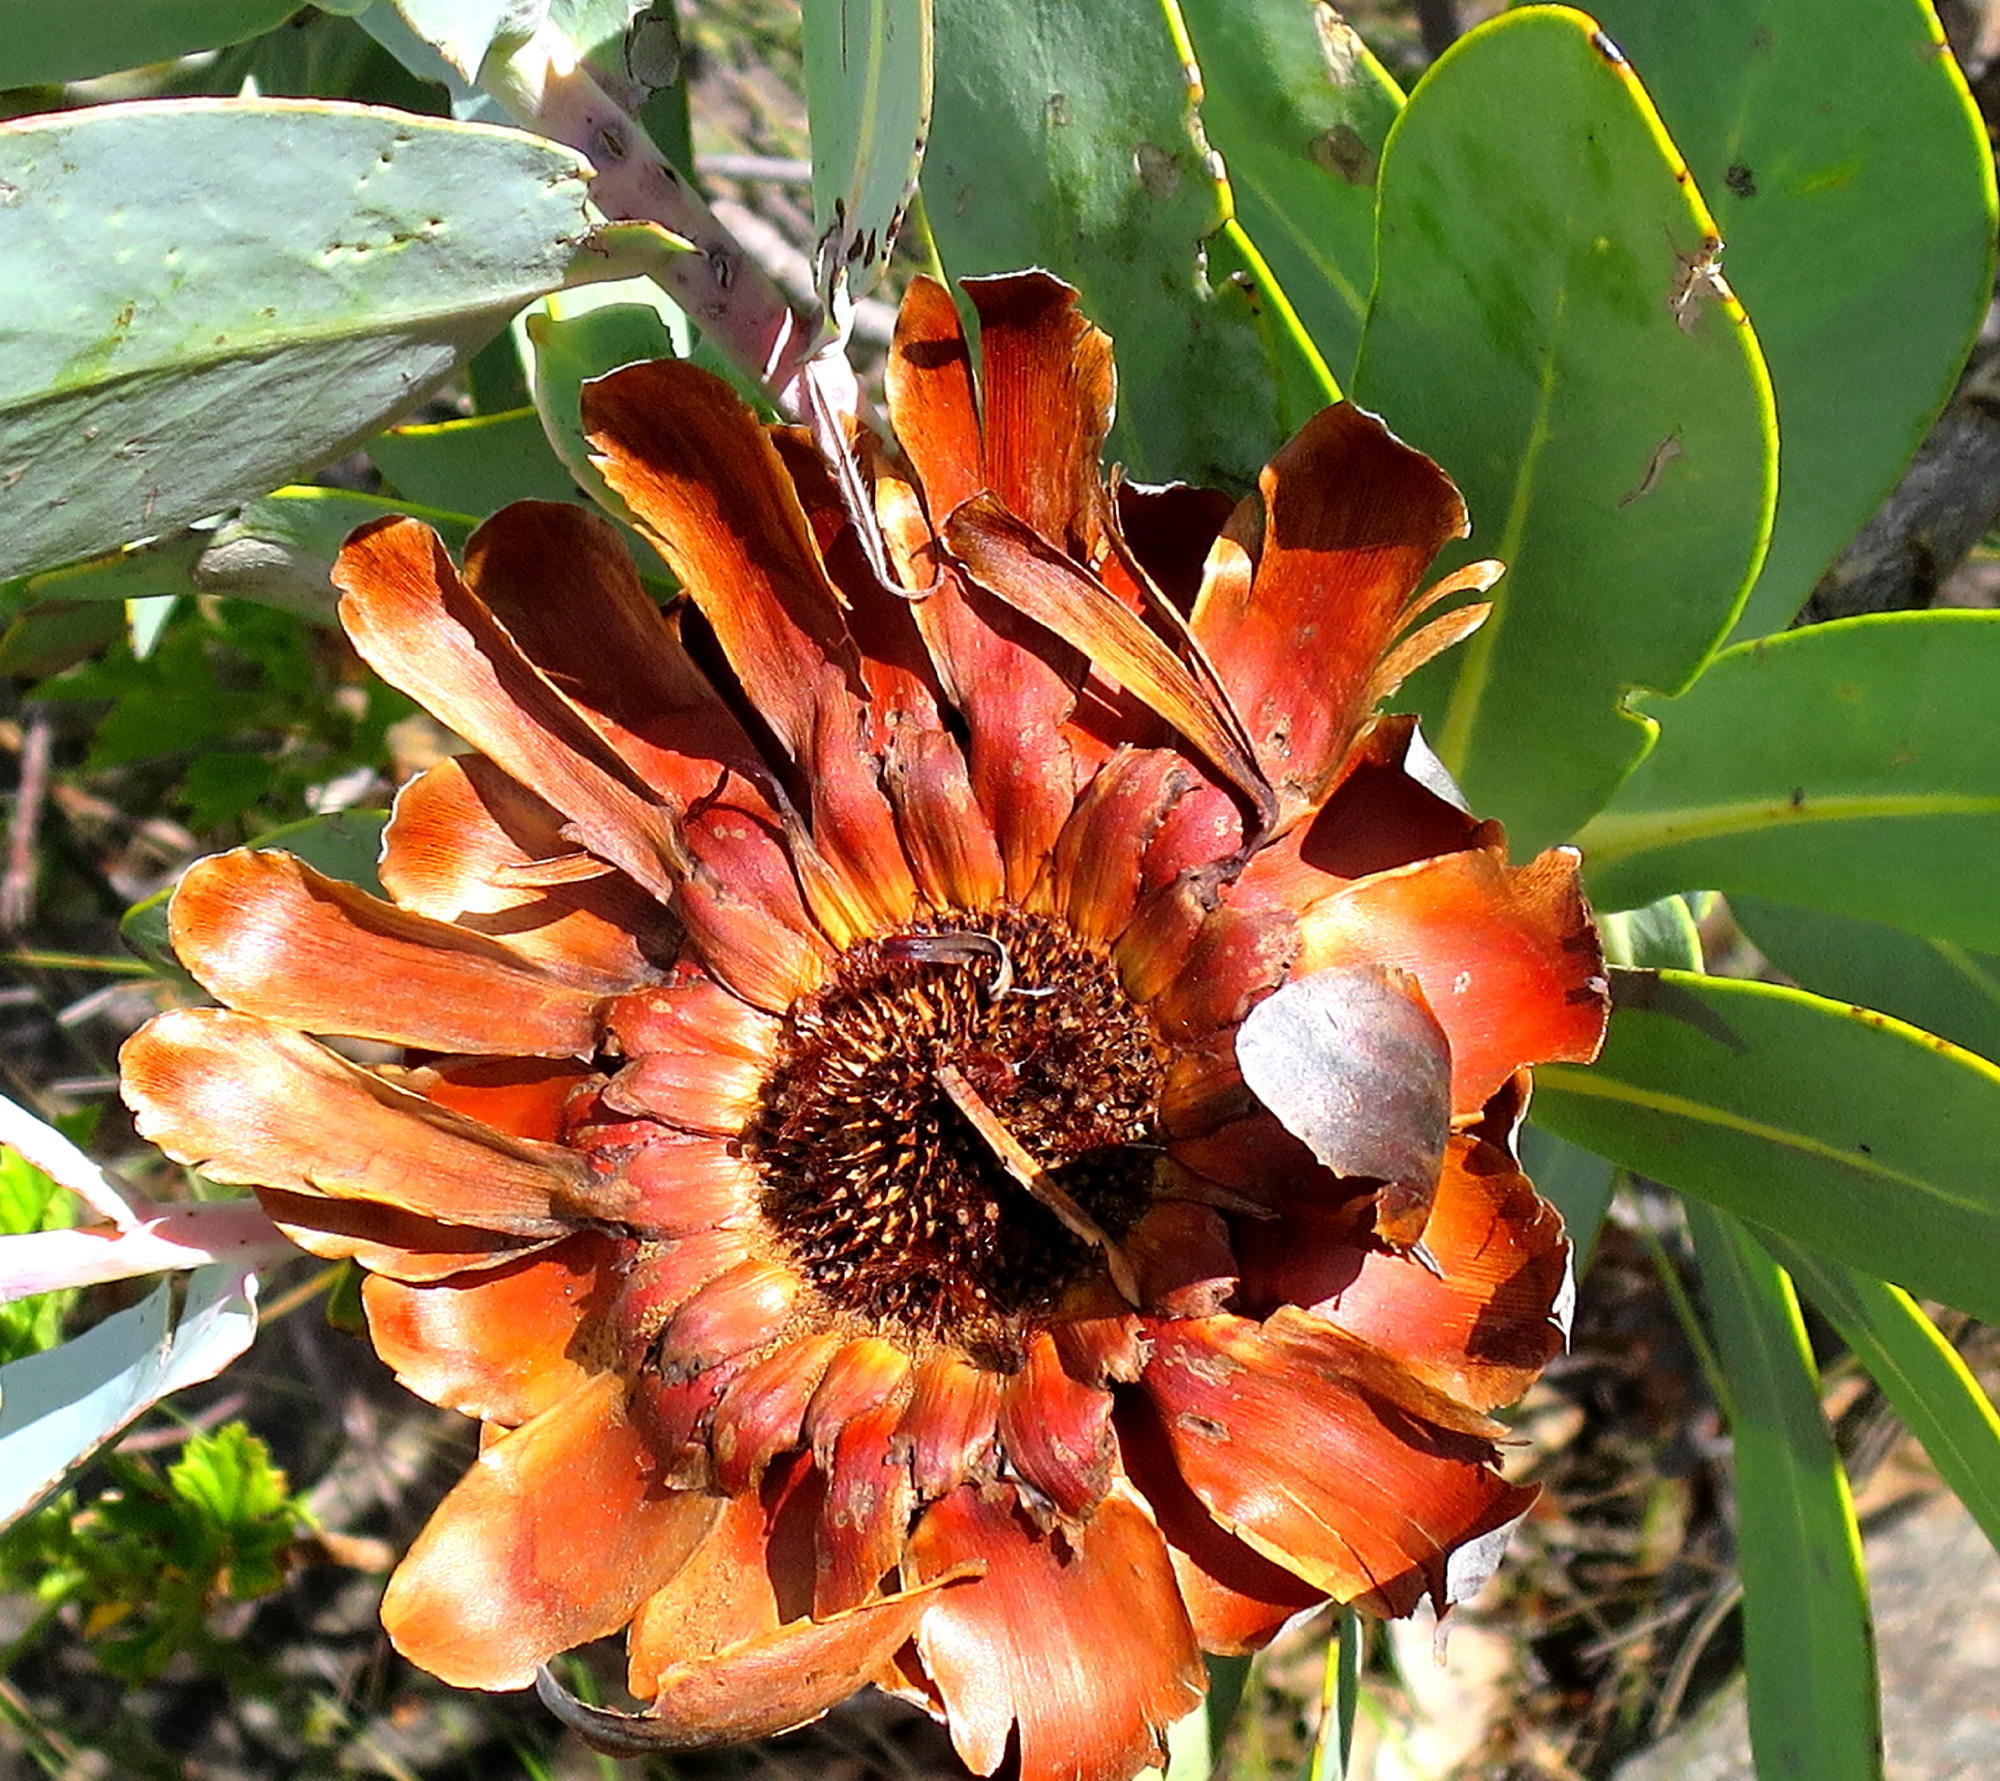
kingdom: Plantae
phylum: Tracheophyta
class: Magnoliopsida
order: Proteales
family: Proteaceae
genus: Protea
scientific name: Protea nitida
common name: Tree protea
